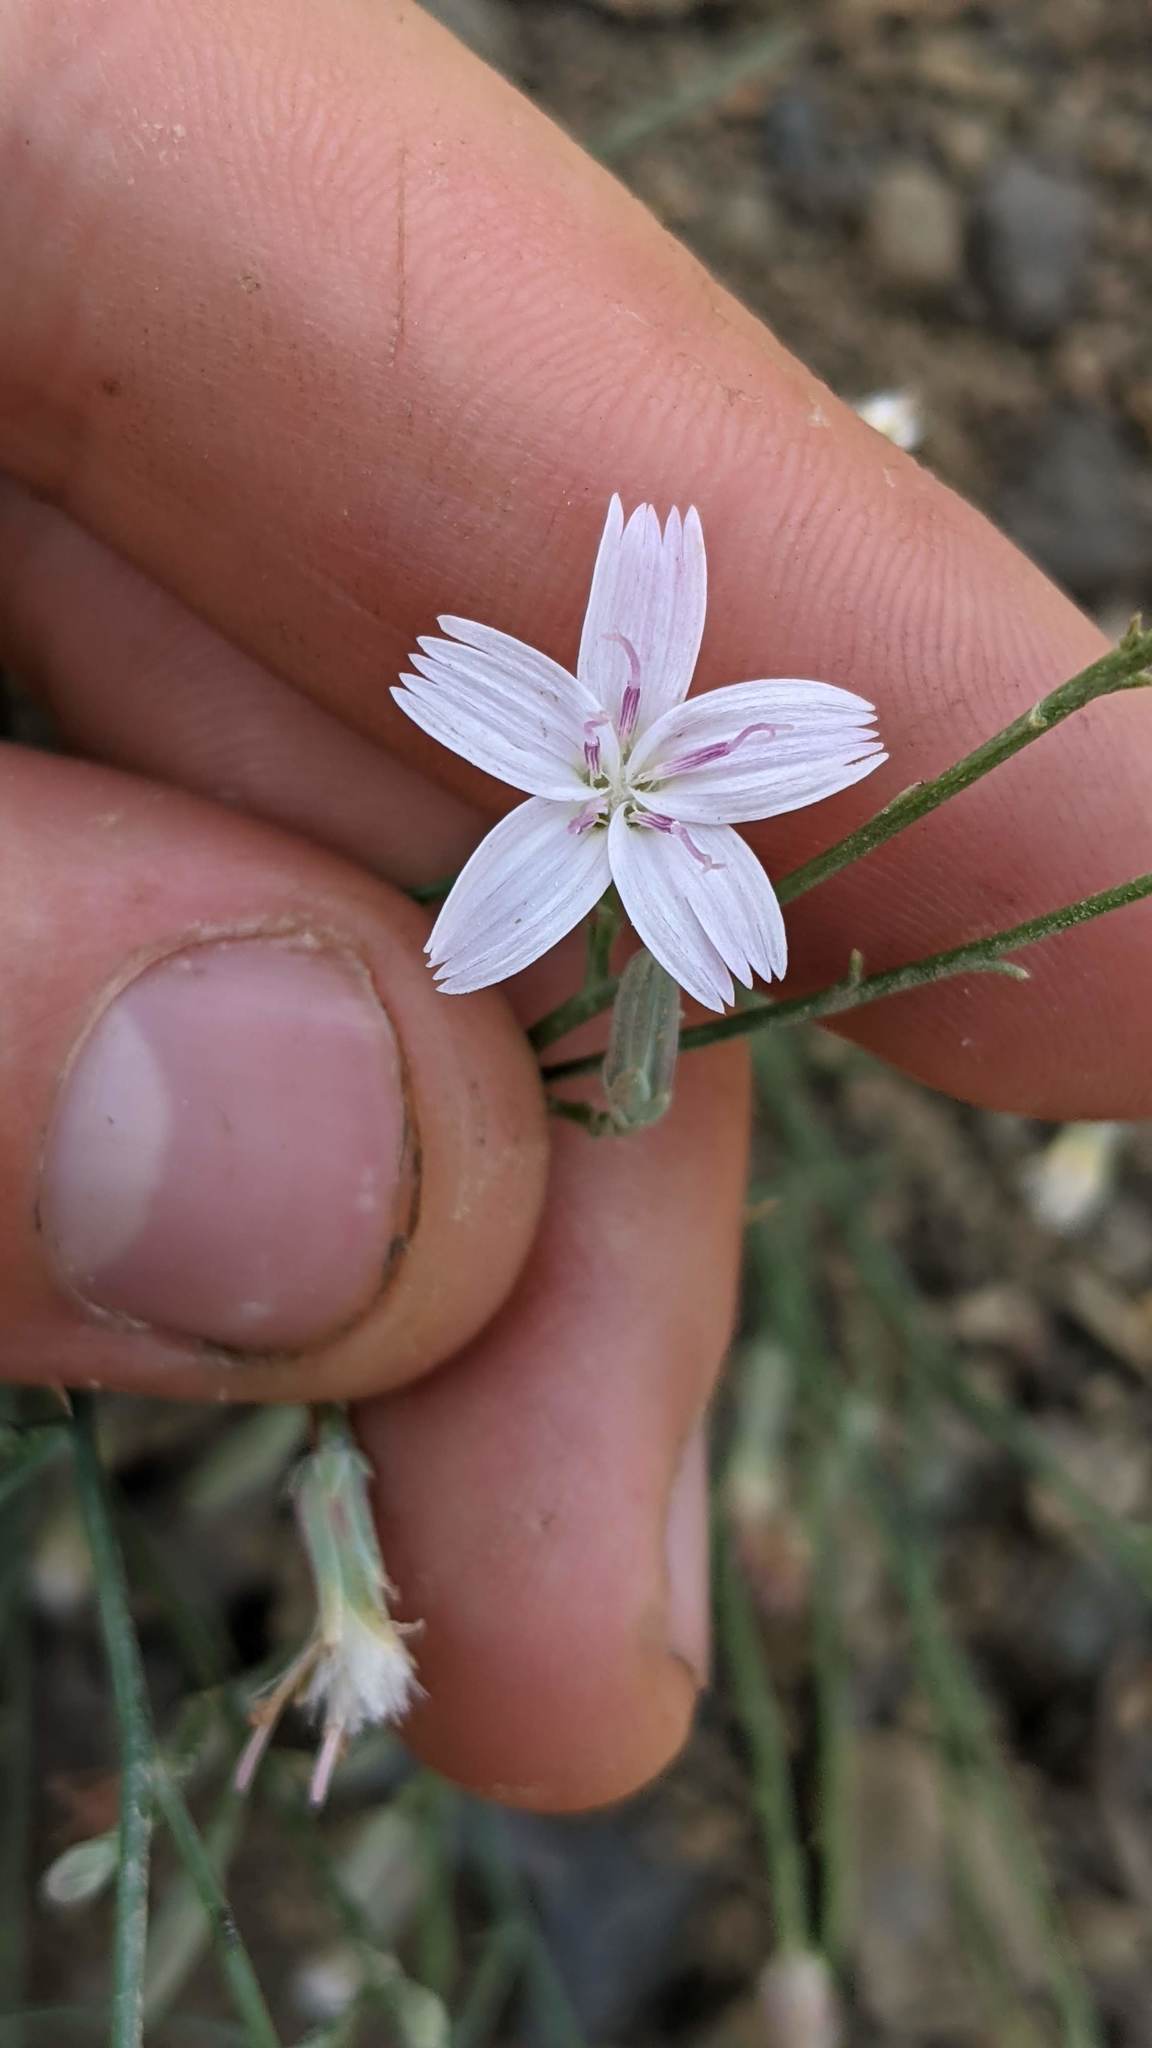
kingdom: Plantae
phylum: Tracheophyta
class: Magnoliopsida
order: Asterales
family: Asteraceae
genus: Stephanomeria
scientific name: Stephanomeria tenuifolia
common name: Slender wirelettuce
